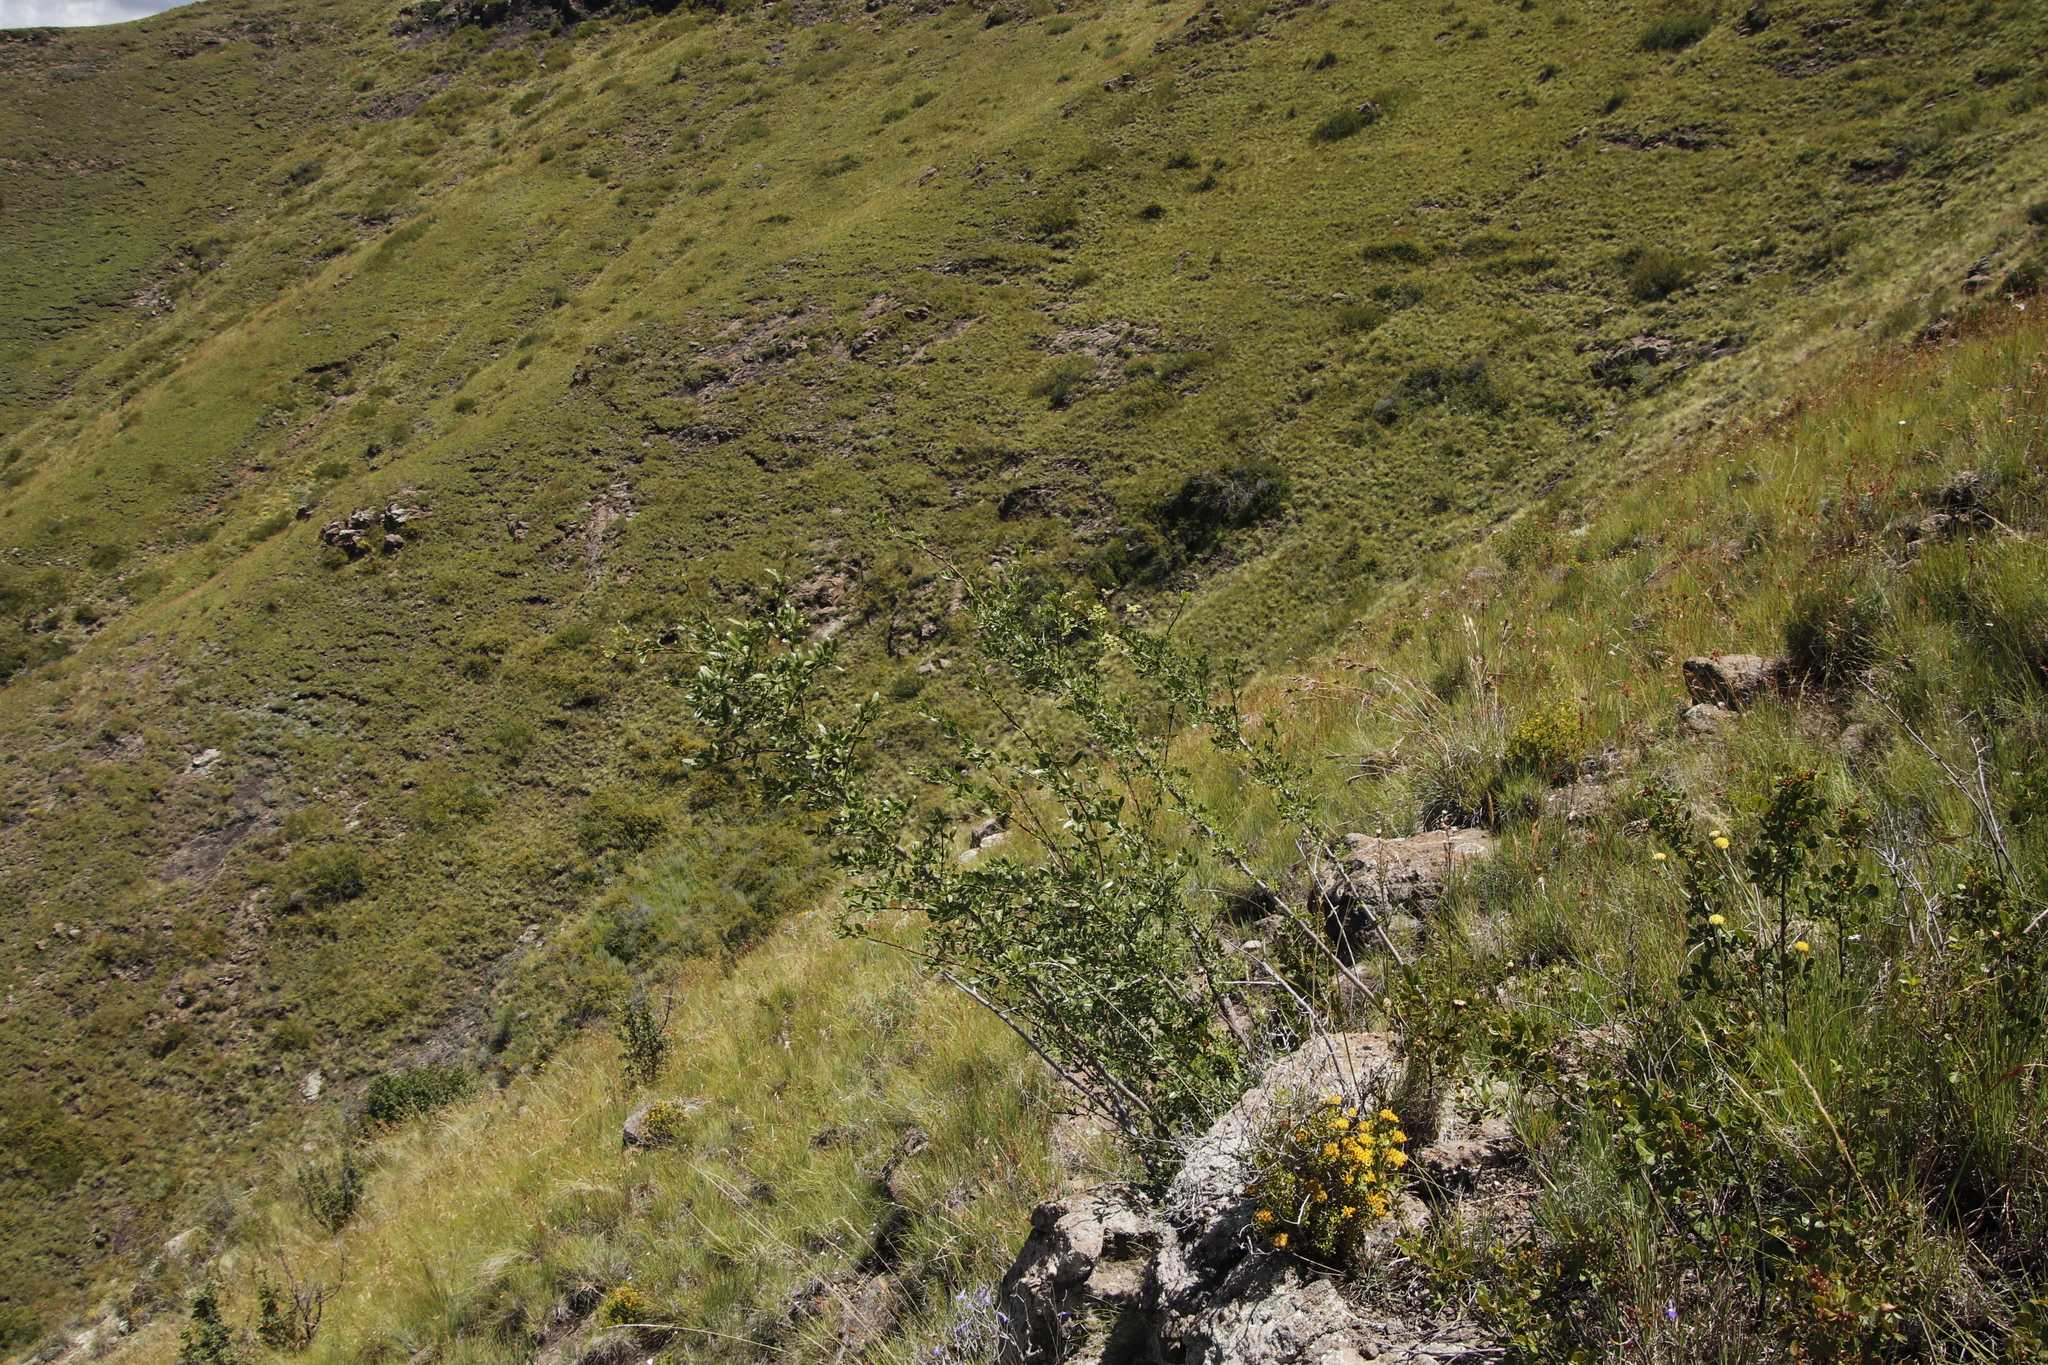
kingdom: Plantae
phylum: Tracheophyta
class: Magnoliopsida
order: Apiales
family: Apiaceae
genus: Polemannia
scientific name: Polemannia simplicior
